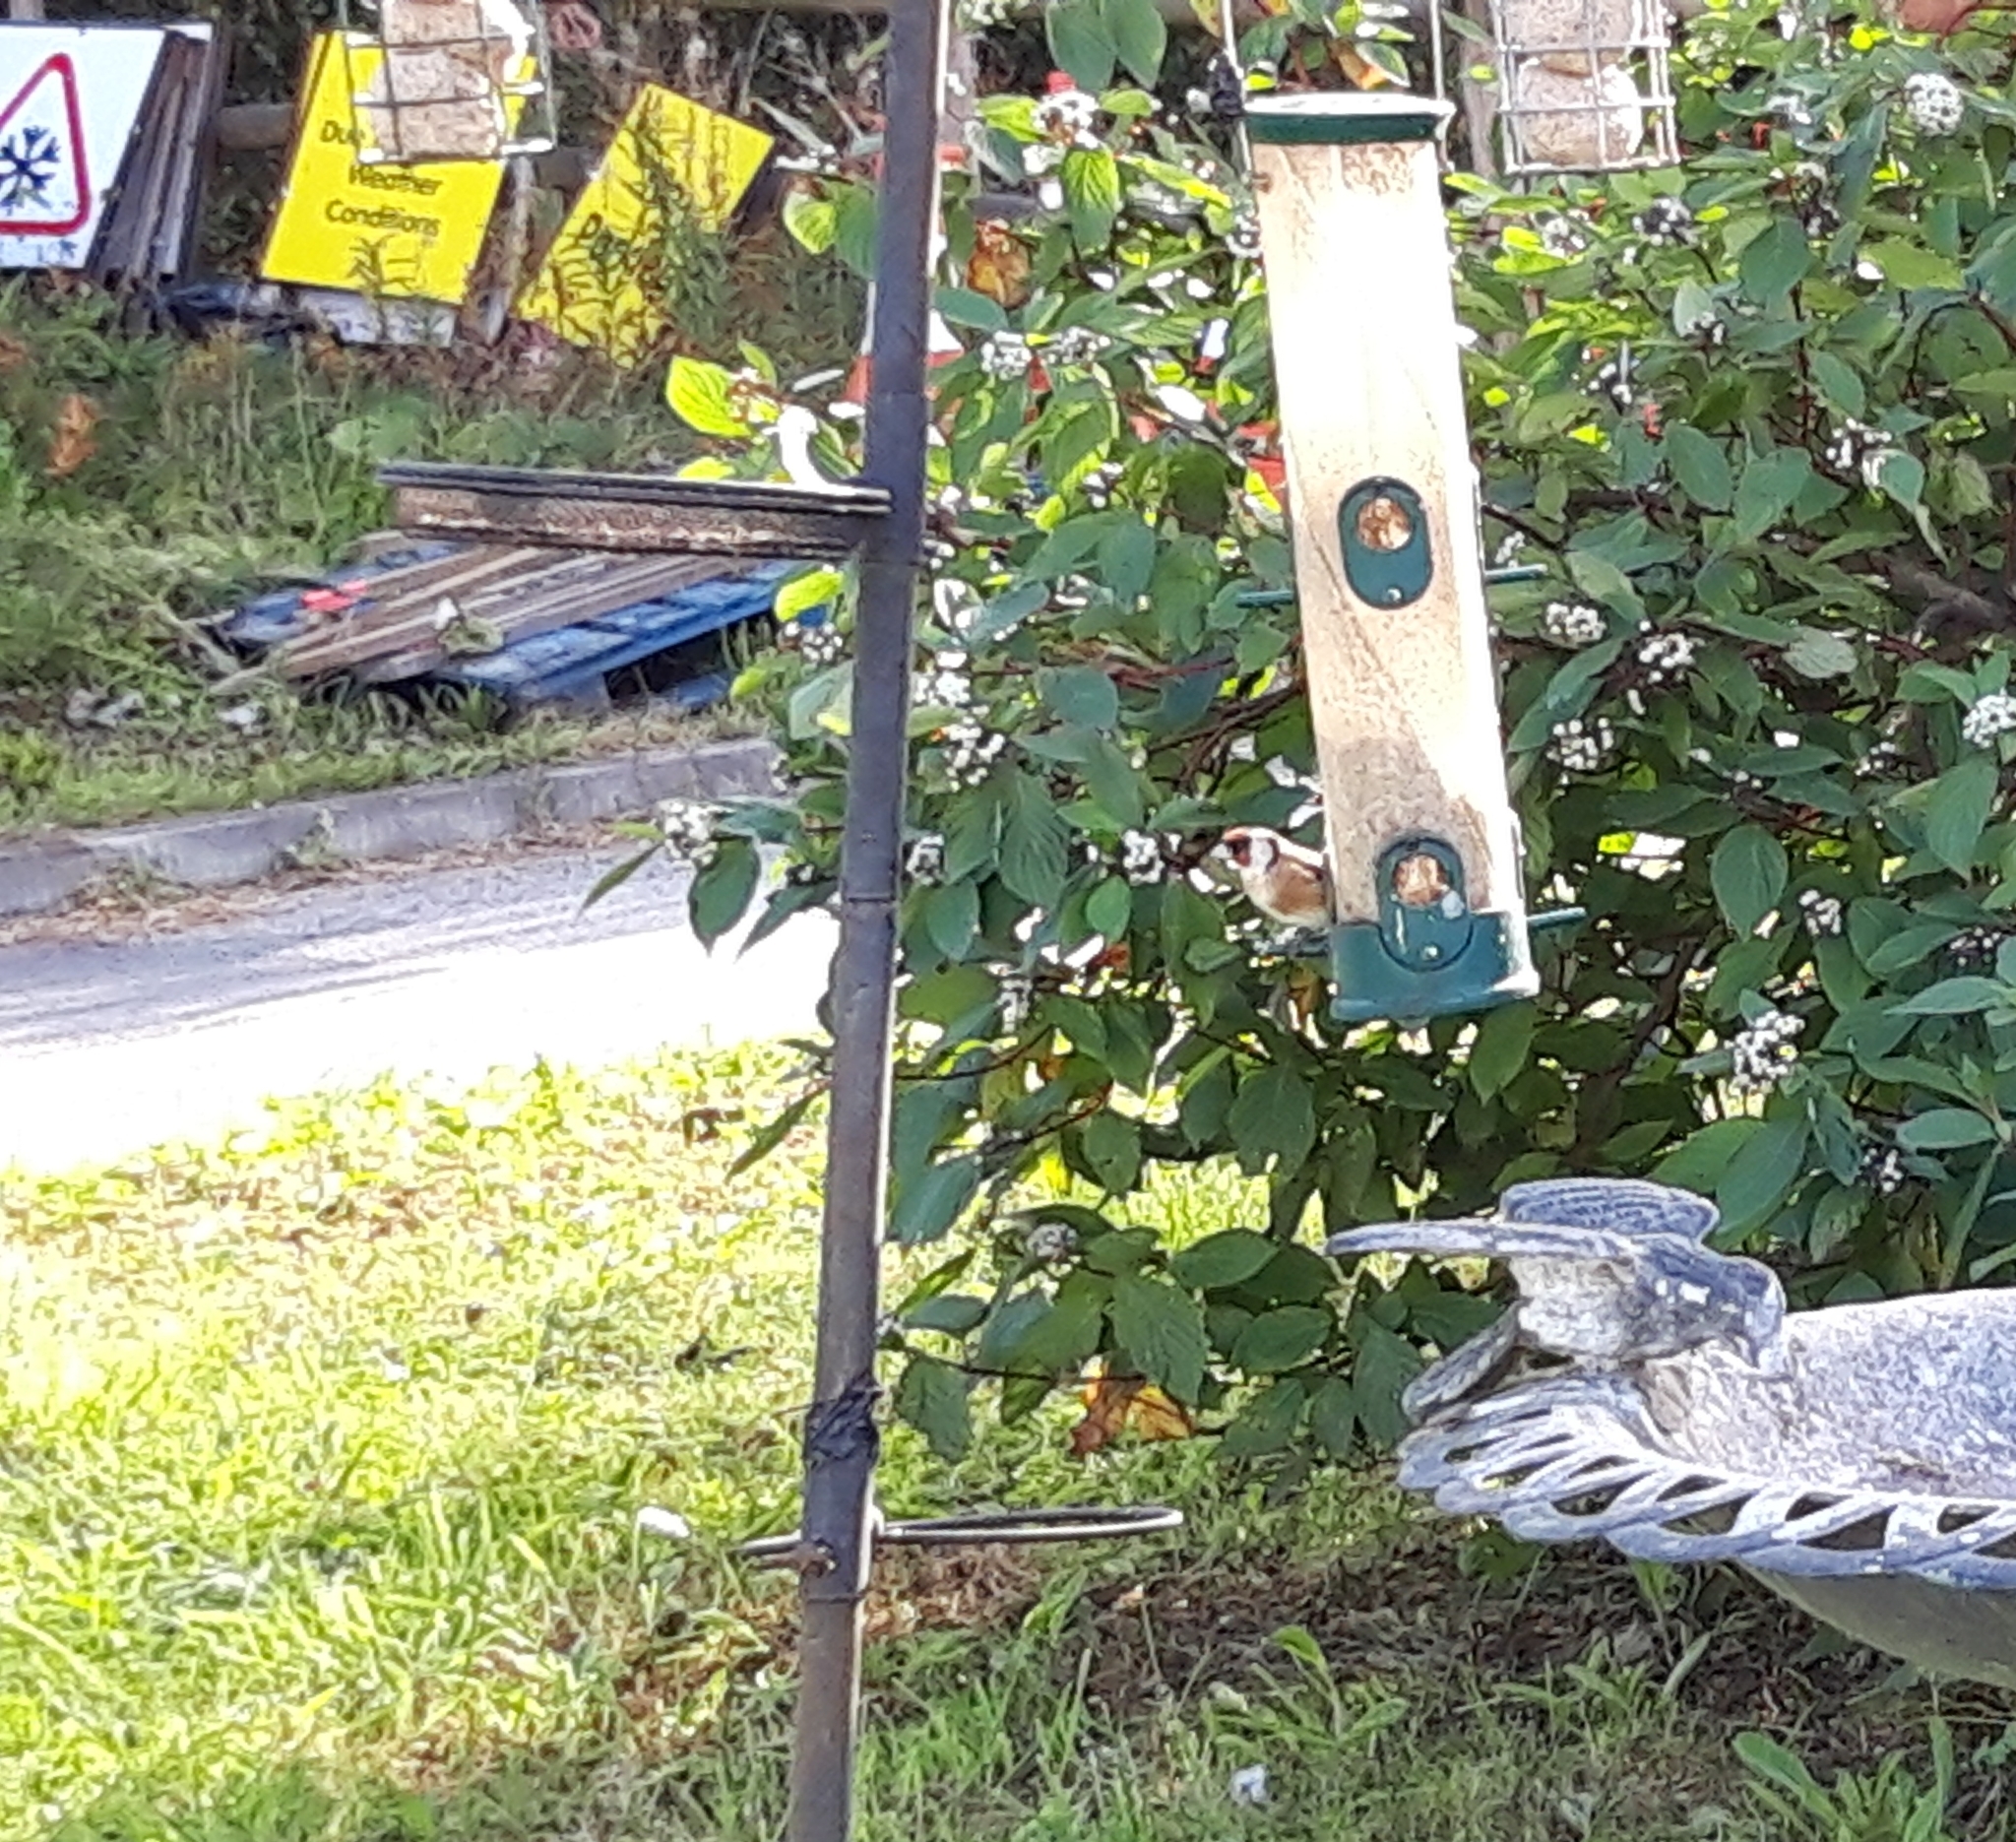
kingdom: Animalia
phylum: Chordata
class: Aves
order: Passeriformes
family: Fringillidae
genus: Carduelis
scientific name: Carduelis carduelis
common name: European goldfinch
